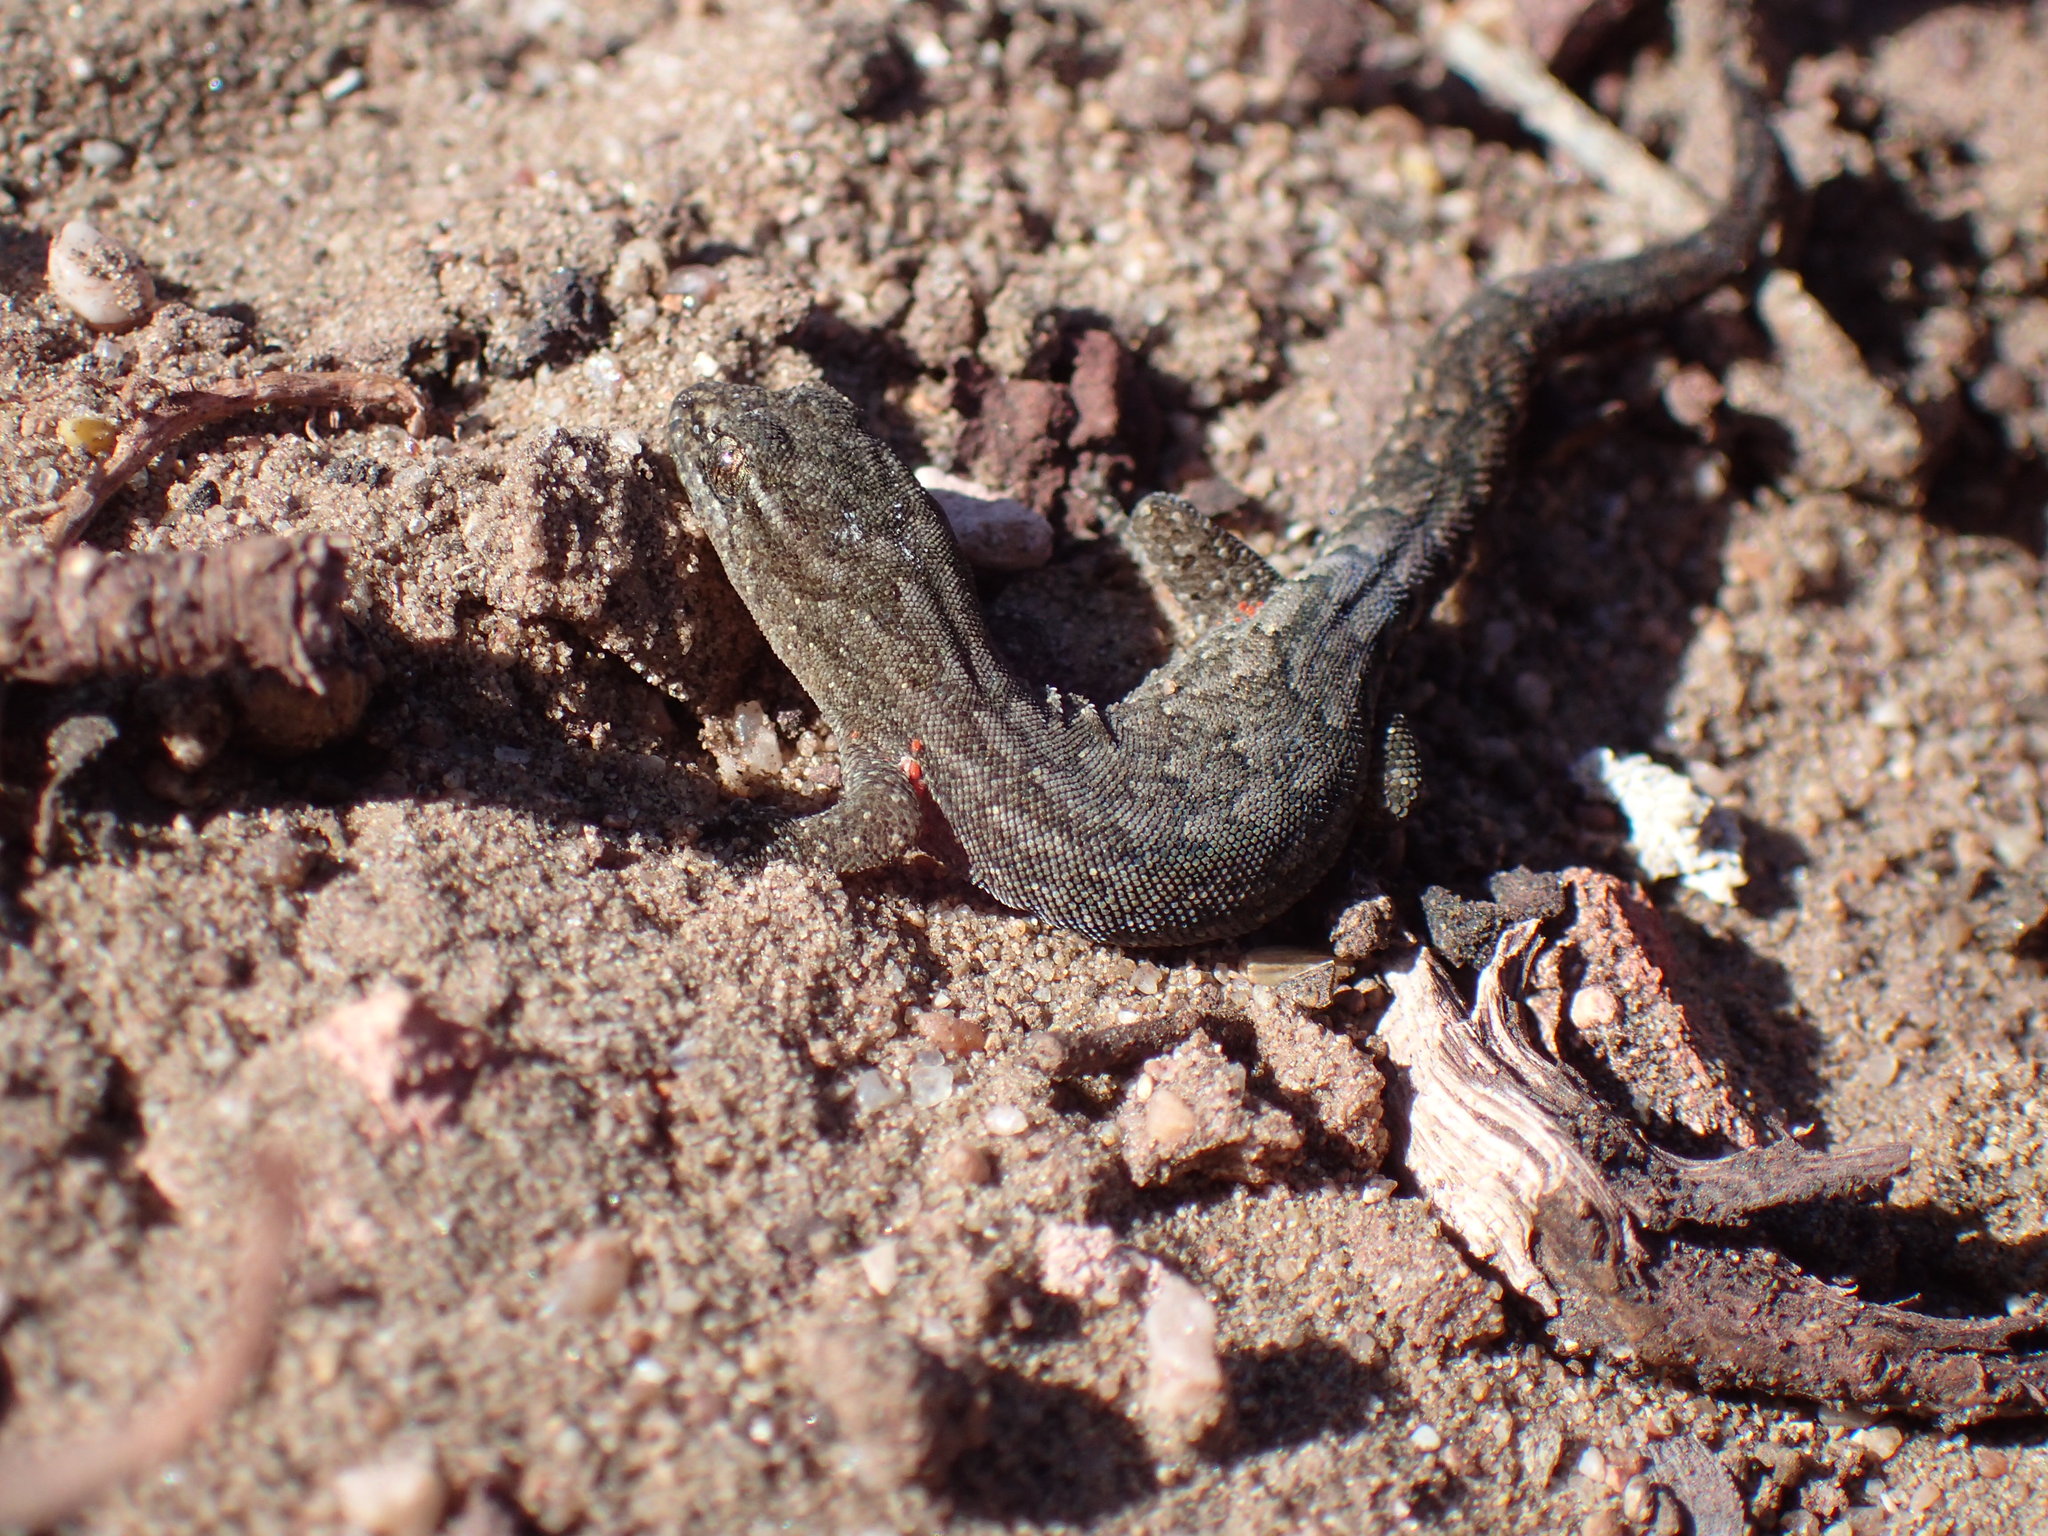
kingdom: Animalia
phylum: Chordata
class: Squamata
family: Gekkonidae
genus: Goggia
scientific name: Goggia incognita
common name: Cryptic pygmy gecko
